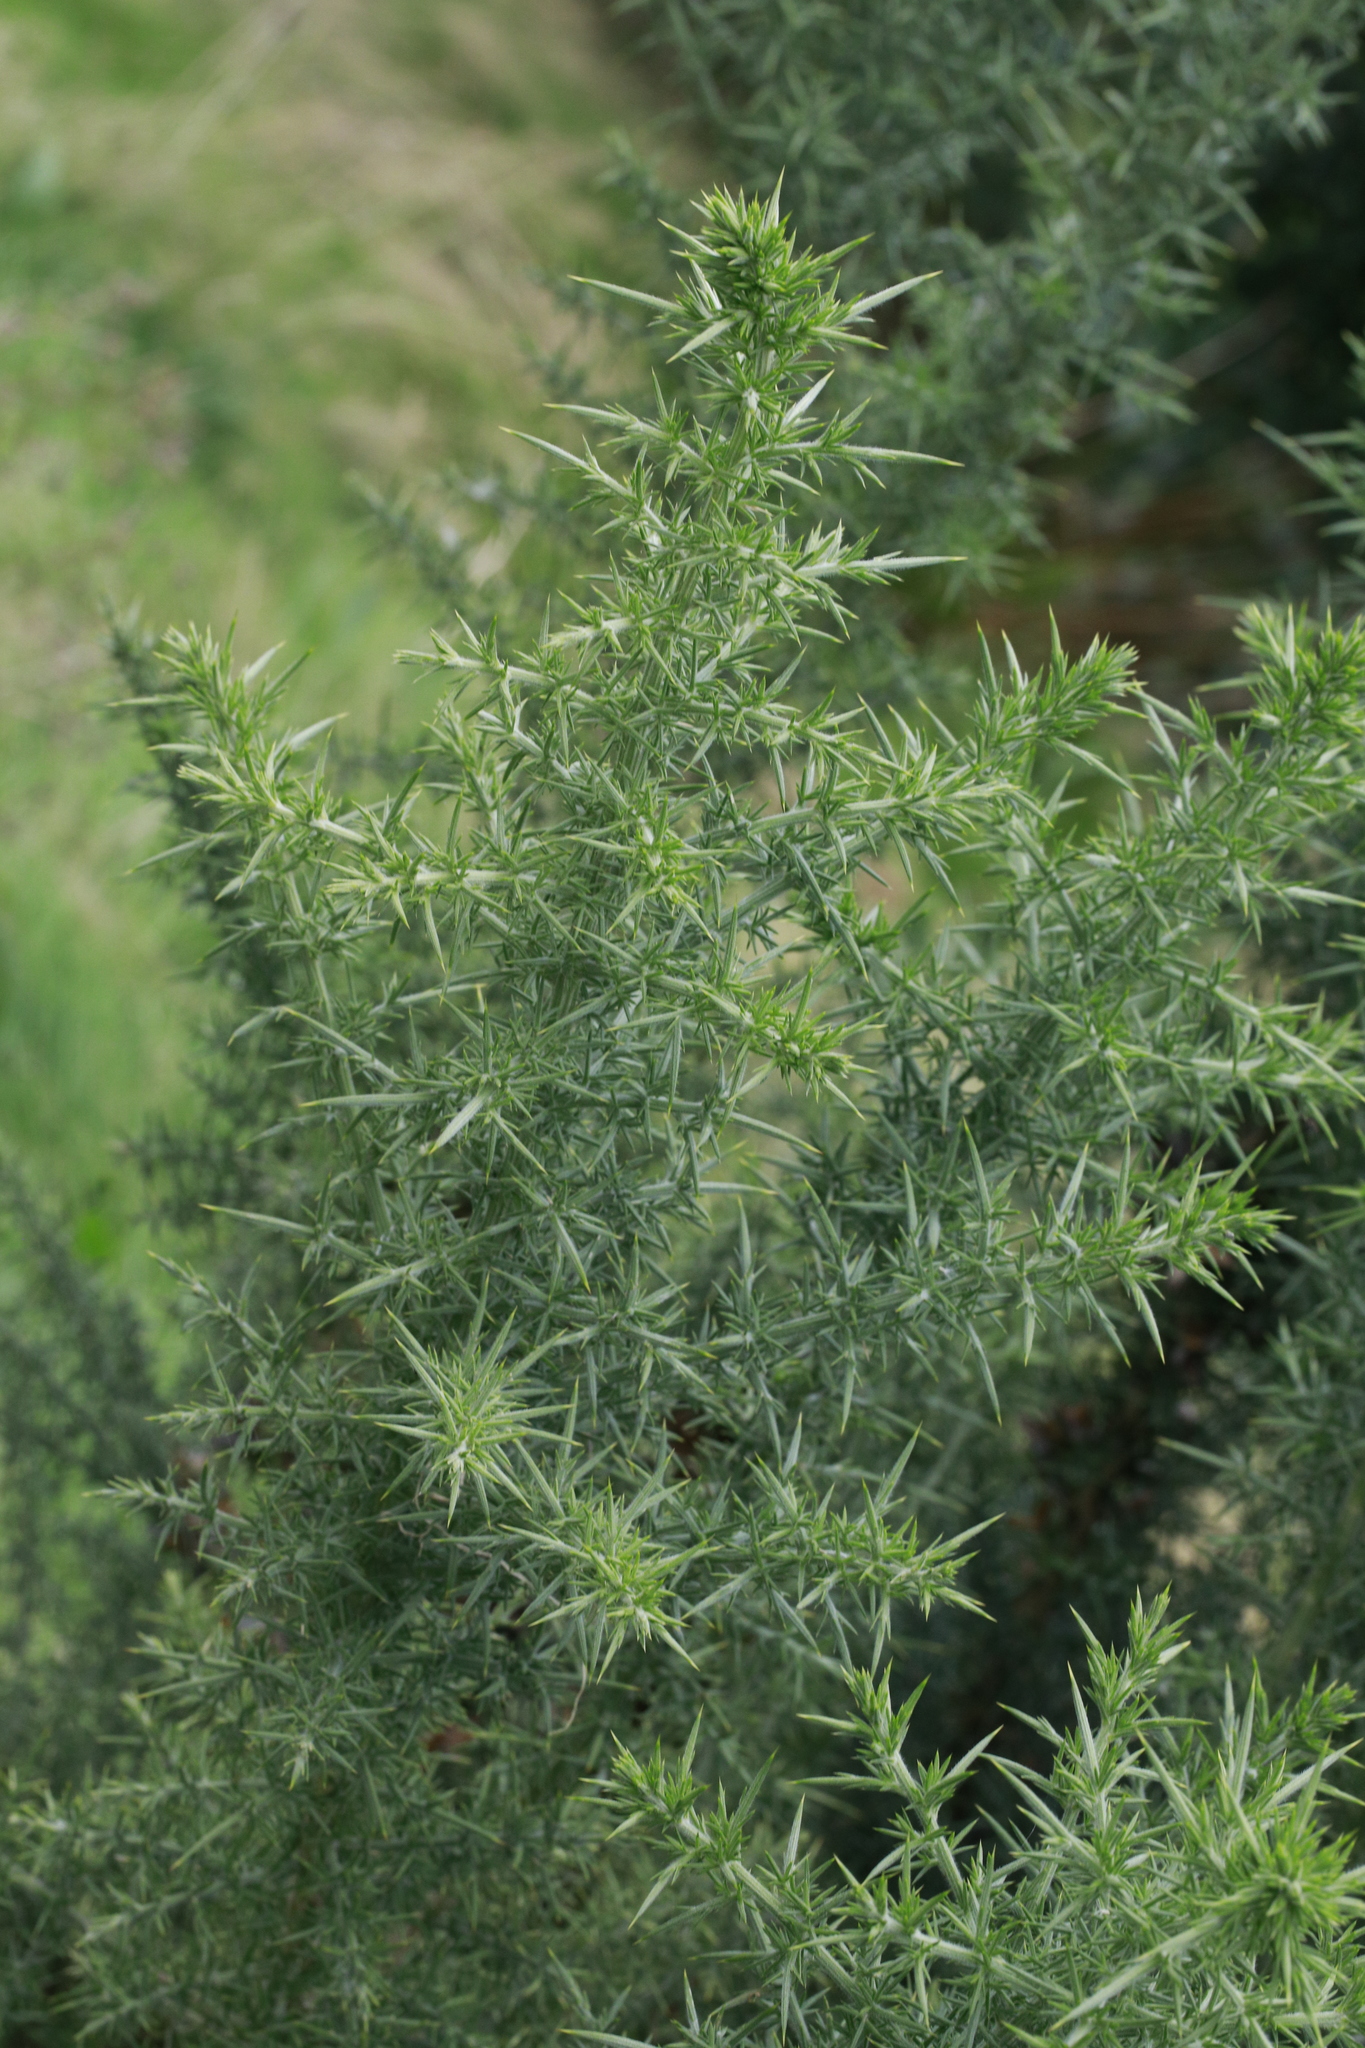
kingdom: Plantae
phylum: Tracheophyta
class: Magnoliopsida
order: Fabales
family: Fabaceae
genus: Ulex
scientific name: Ulex europaeus
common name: Common gorse
